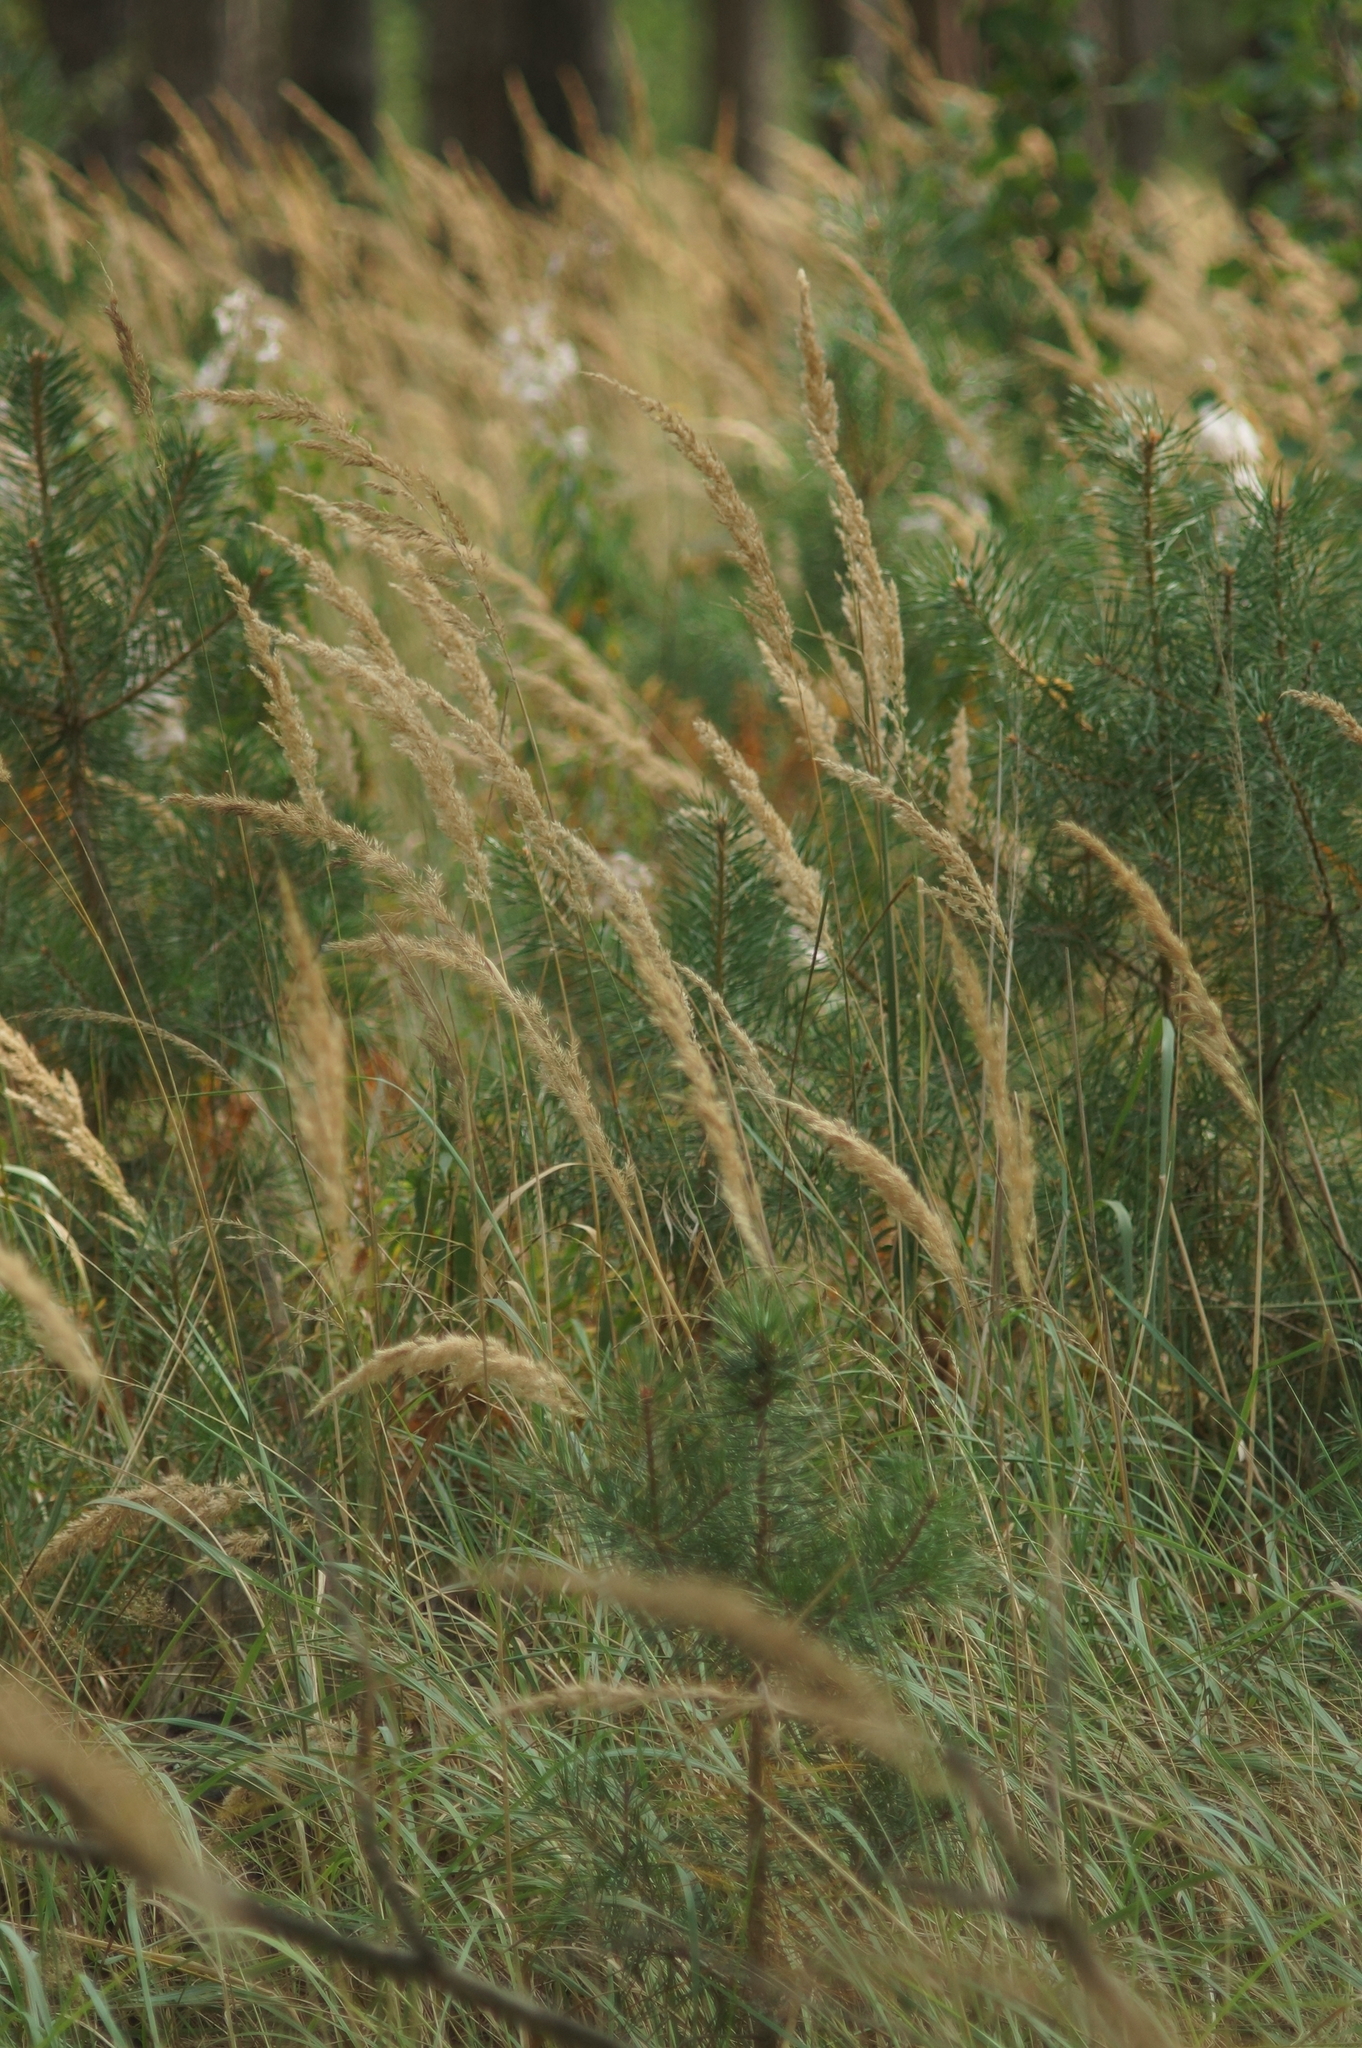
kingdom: Plantae
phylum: Tracheophyta
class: Liliopsida
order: Poales
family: Poaceae
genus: Calamagrostis
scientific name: Calamagrostis epigejos
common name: Wood small-reed
